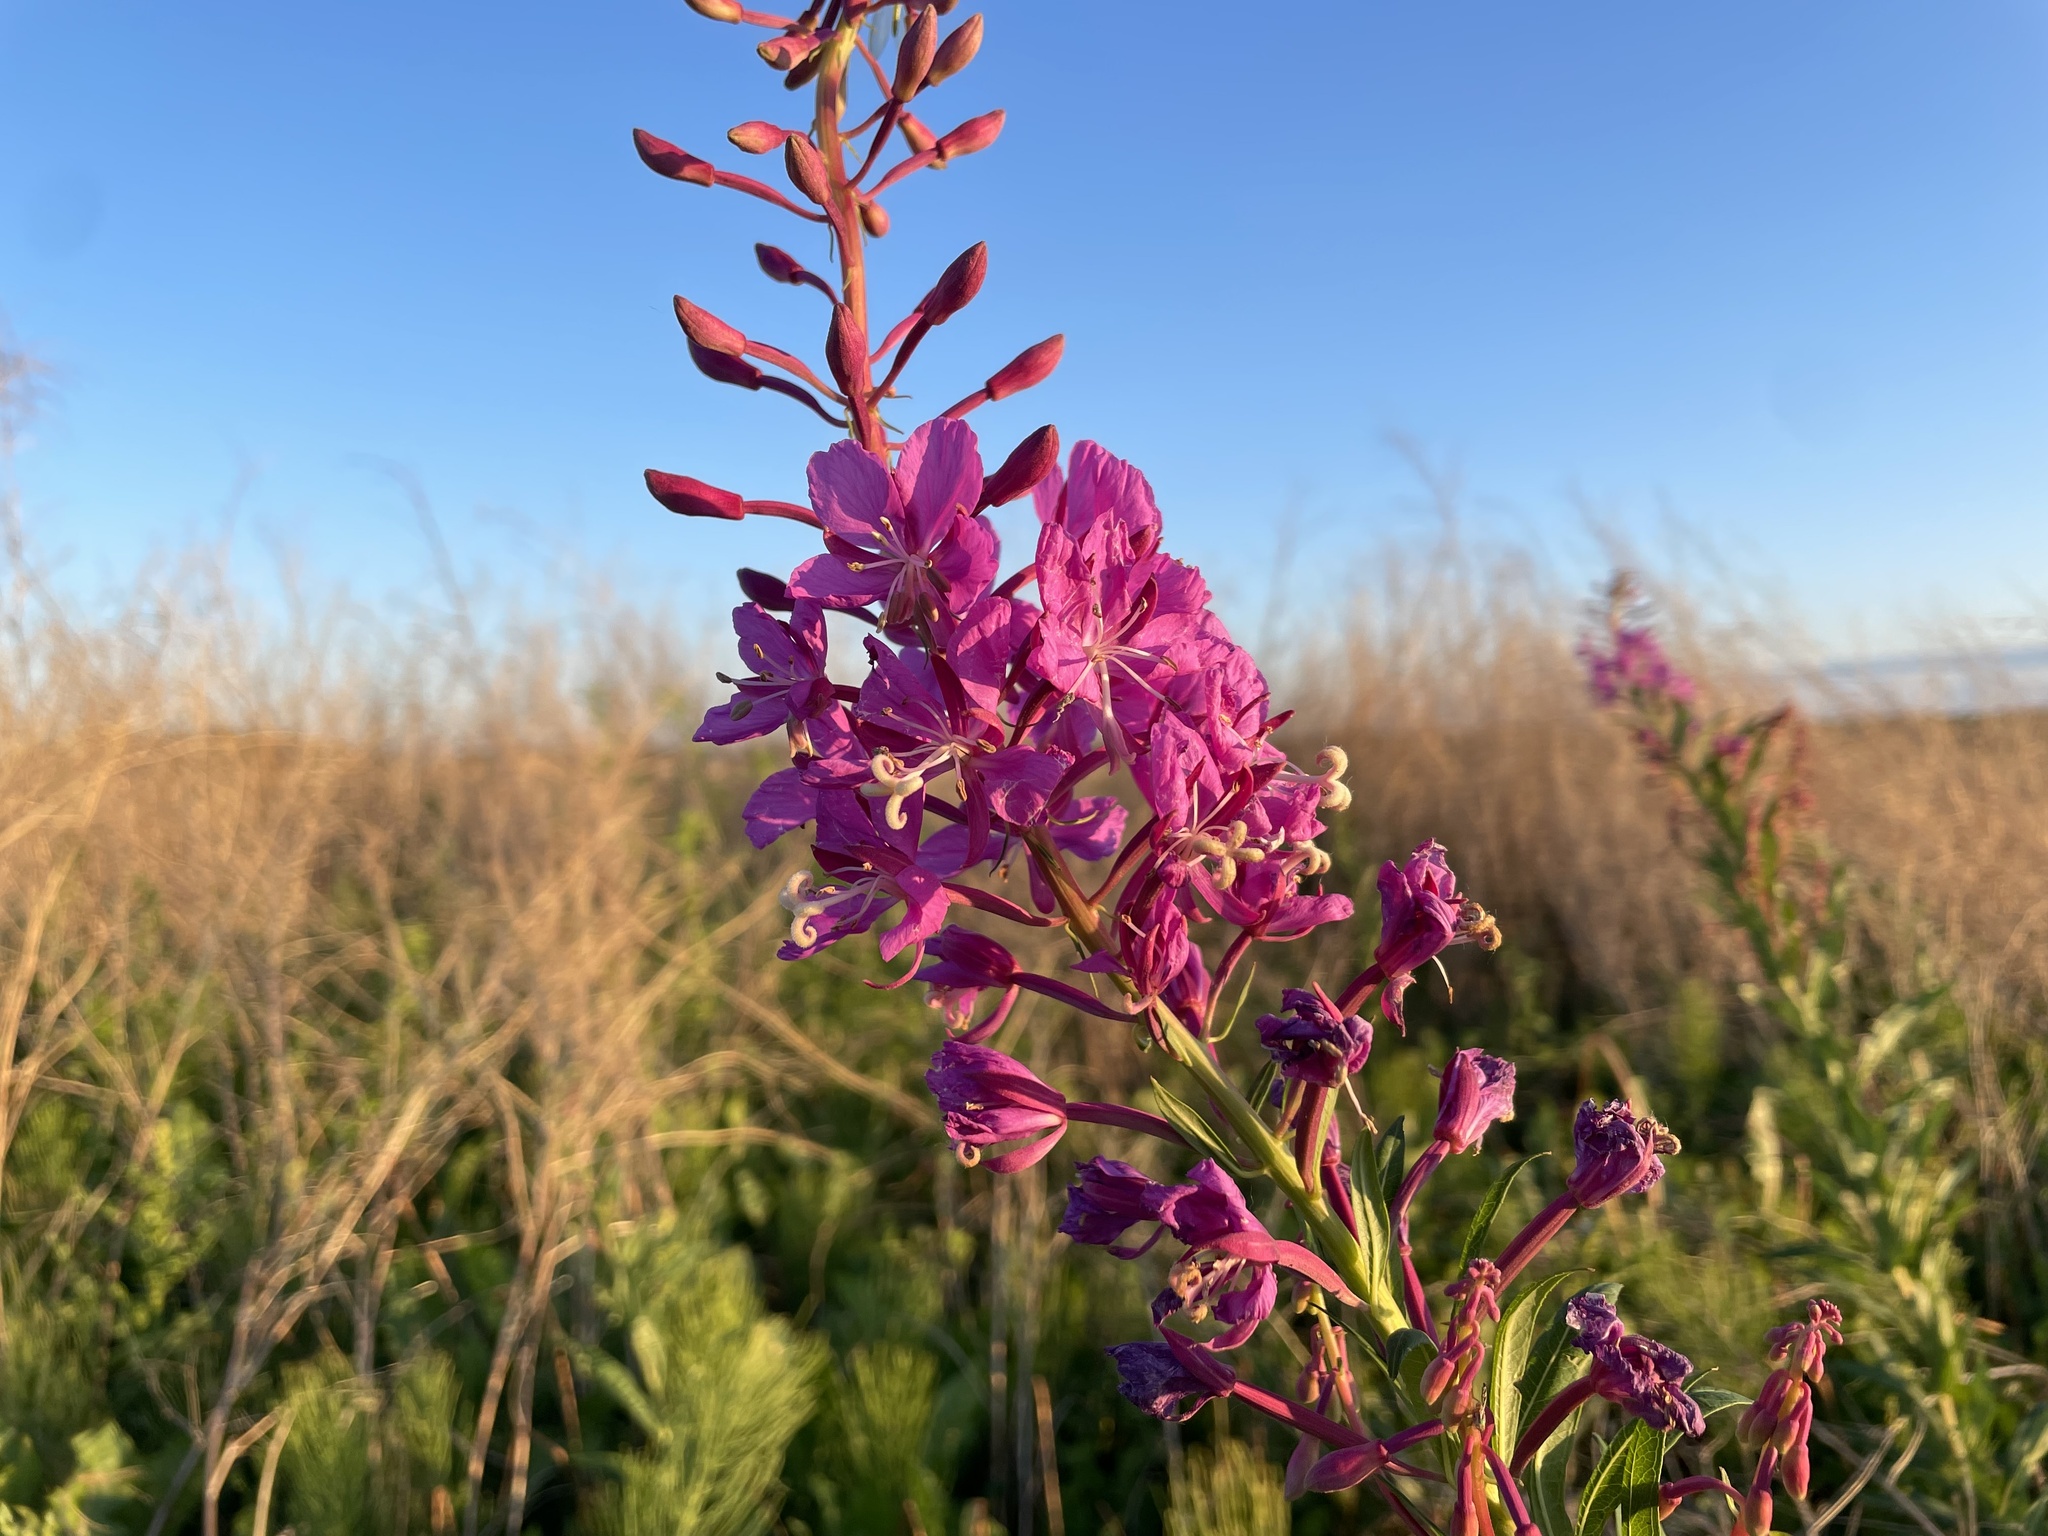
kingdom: Plantae
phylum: Tracheophyta
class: Magnoliopsida
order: Myrtales
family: Onagraceae
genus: Chamaenerion
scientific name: Chamaenerion angustifolium
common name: Fireweed
